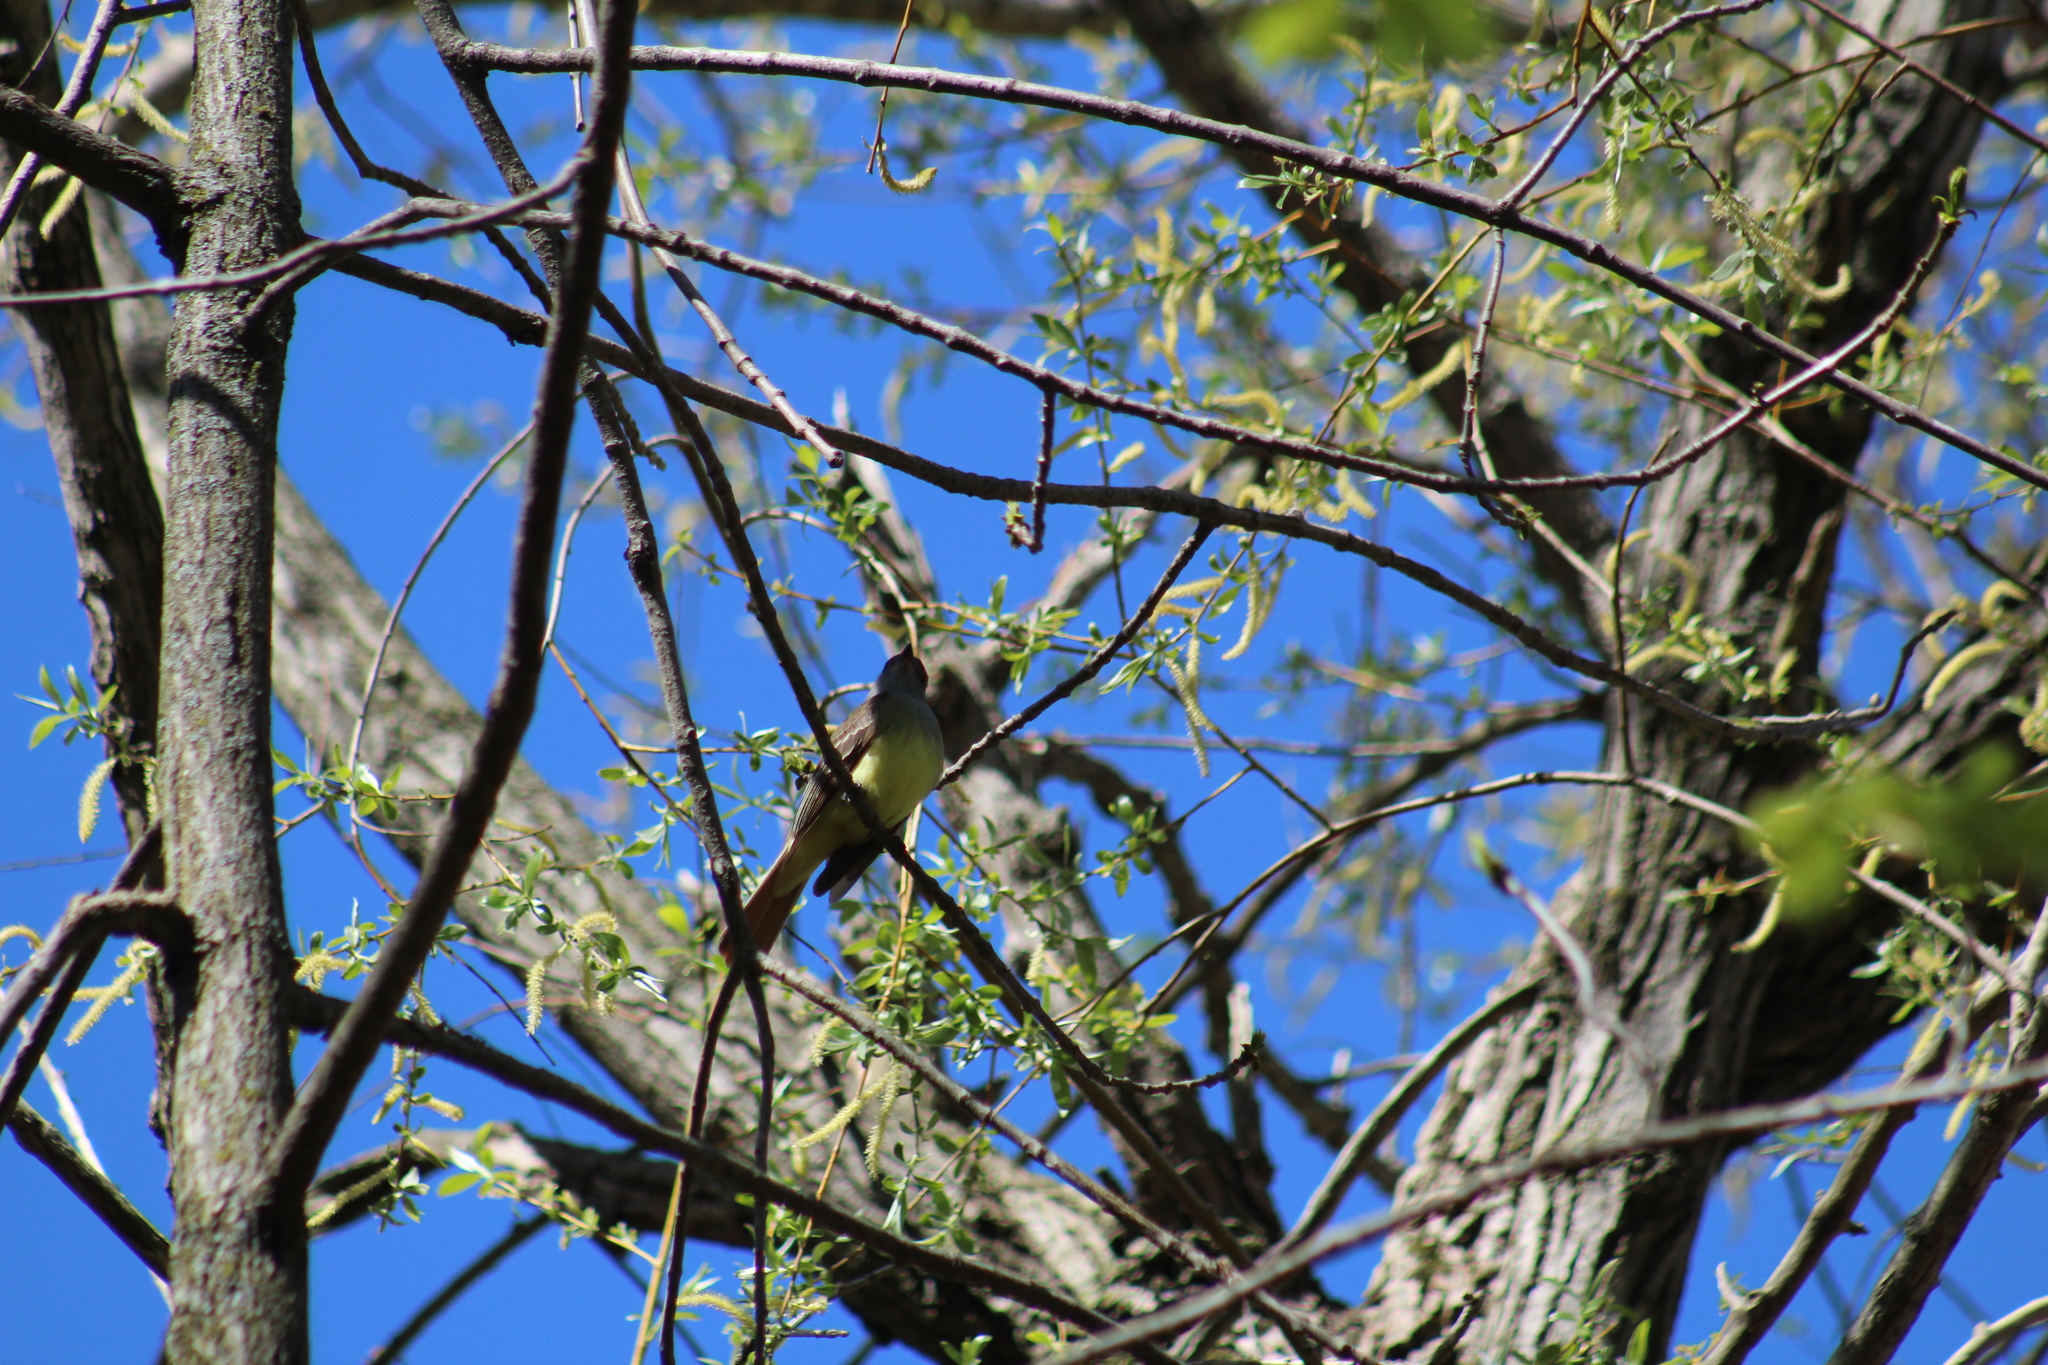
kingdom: Animalia
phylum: Chordata
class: Aves
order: Passeriformes
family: Tyrannidae
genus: Myiarchus
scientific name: Myiarchus crinitus
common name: Great crested flycatcher
